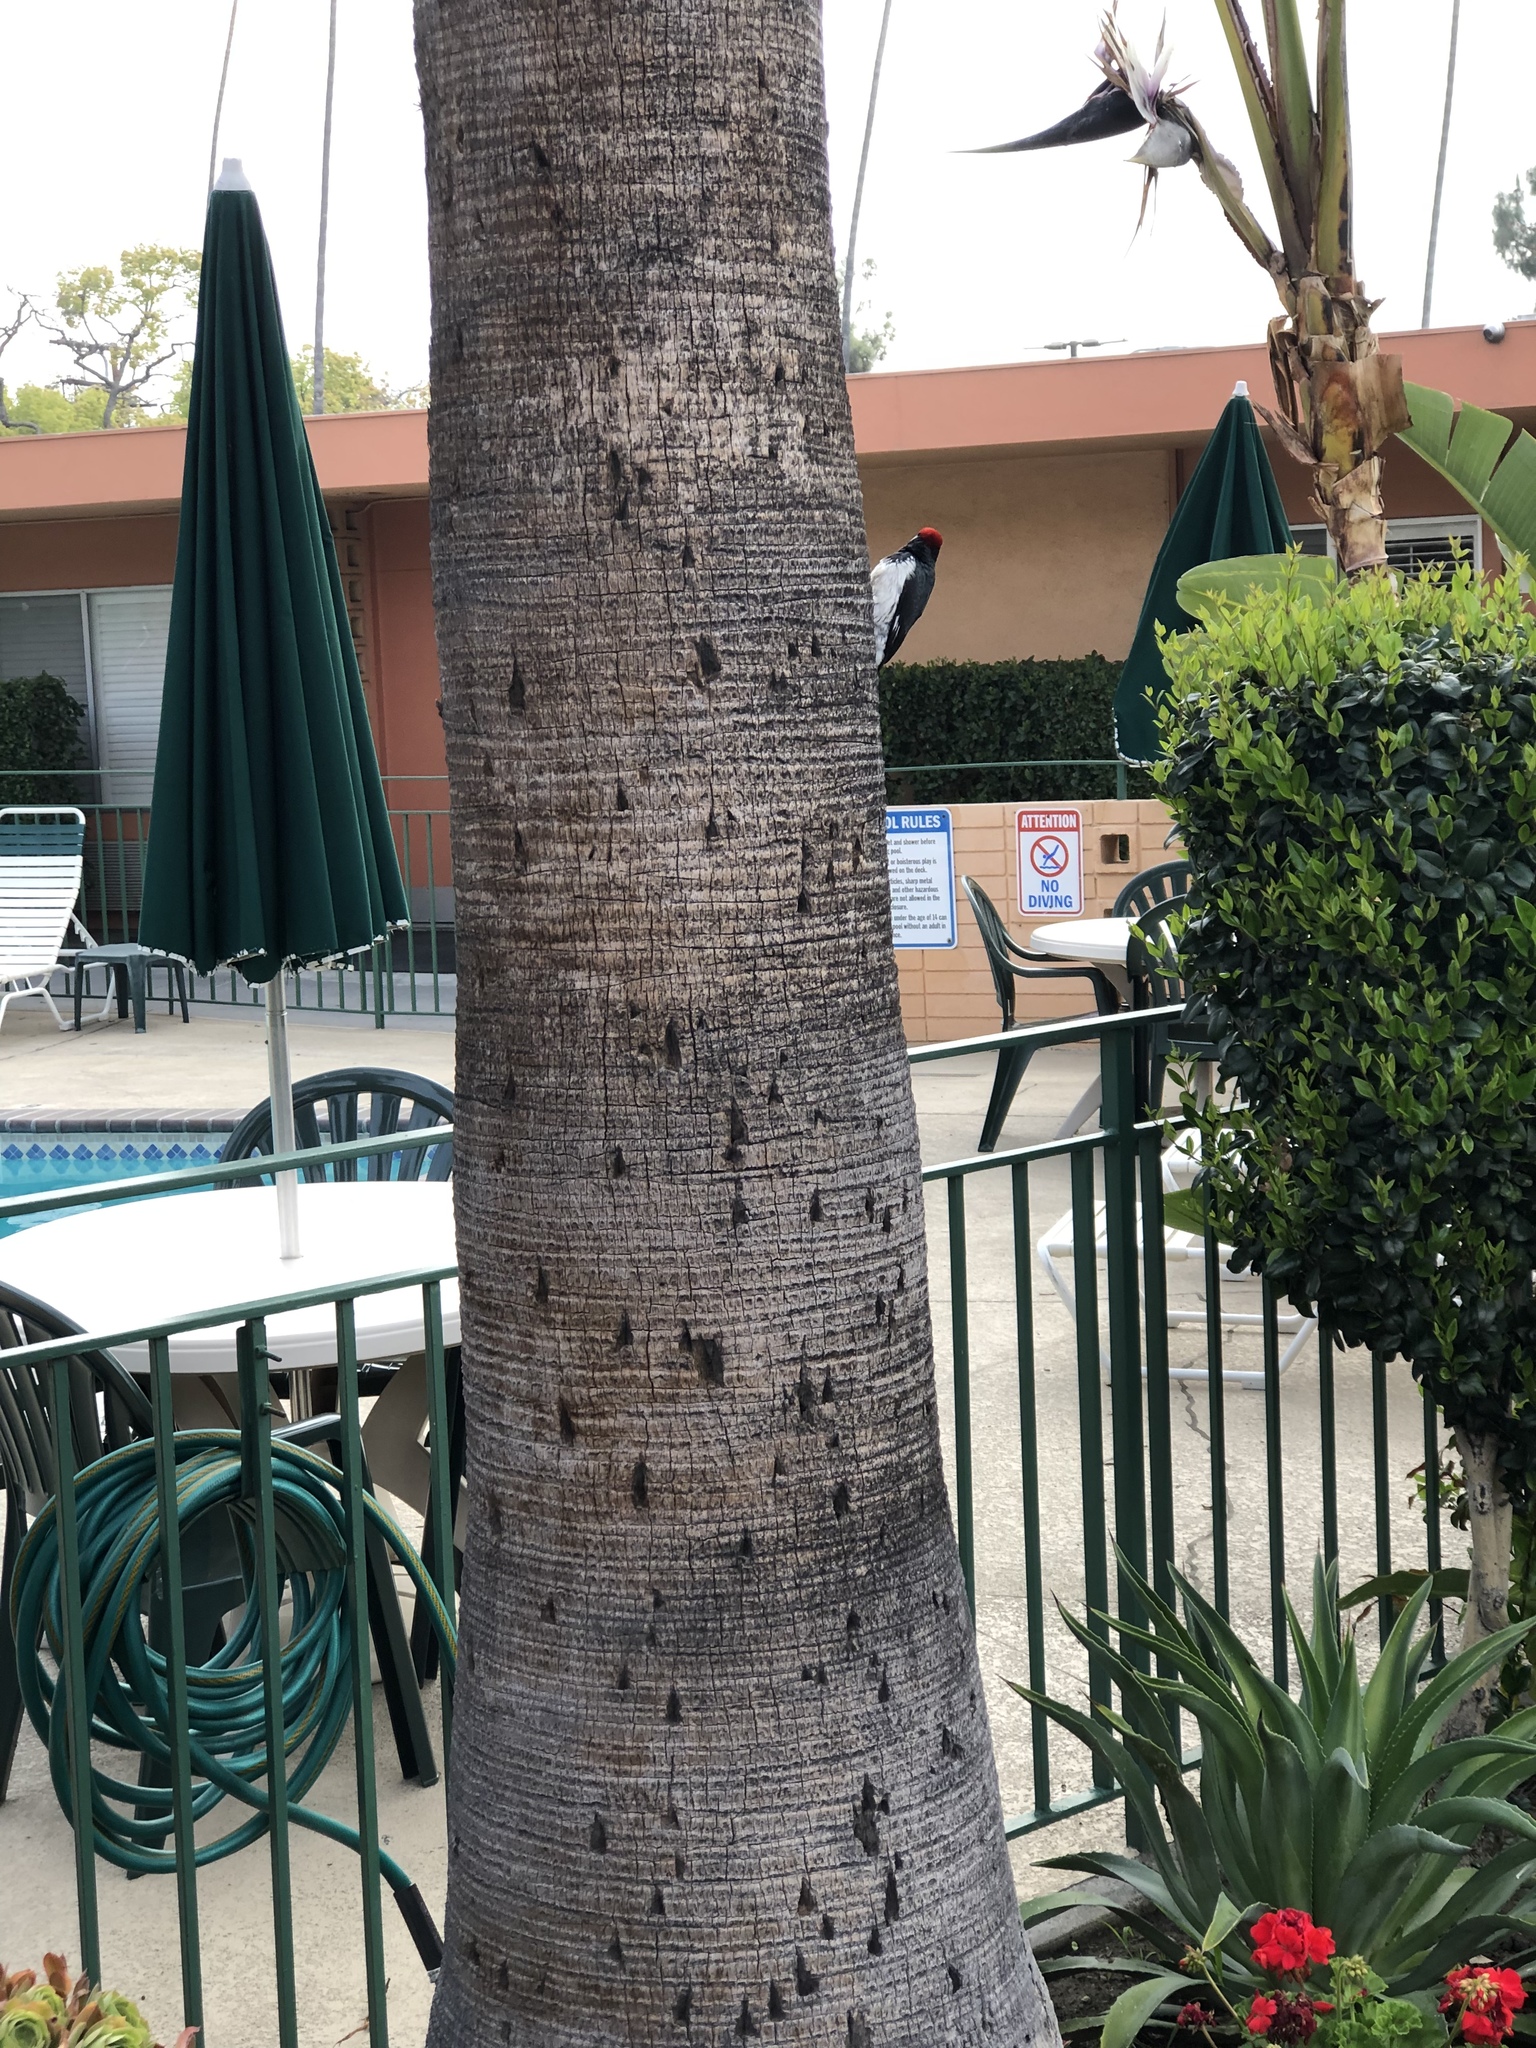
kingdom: Animalia
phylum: Chordata
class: Aves
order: Piciformes
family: Picidae
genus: Melanerpes
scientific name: Melanerpes formicivorus
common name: Acorn woodpecker
